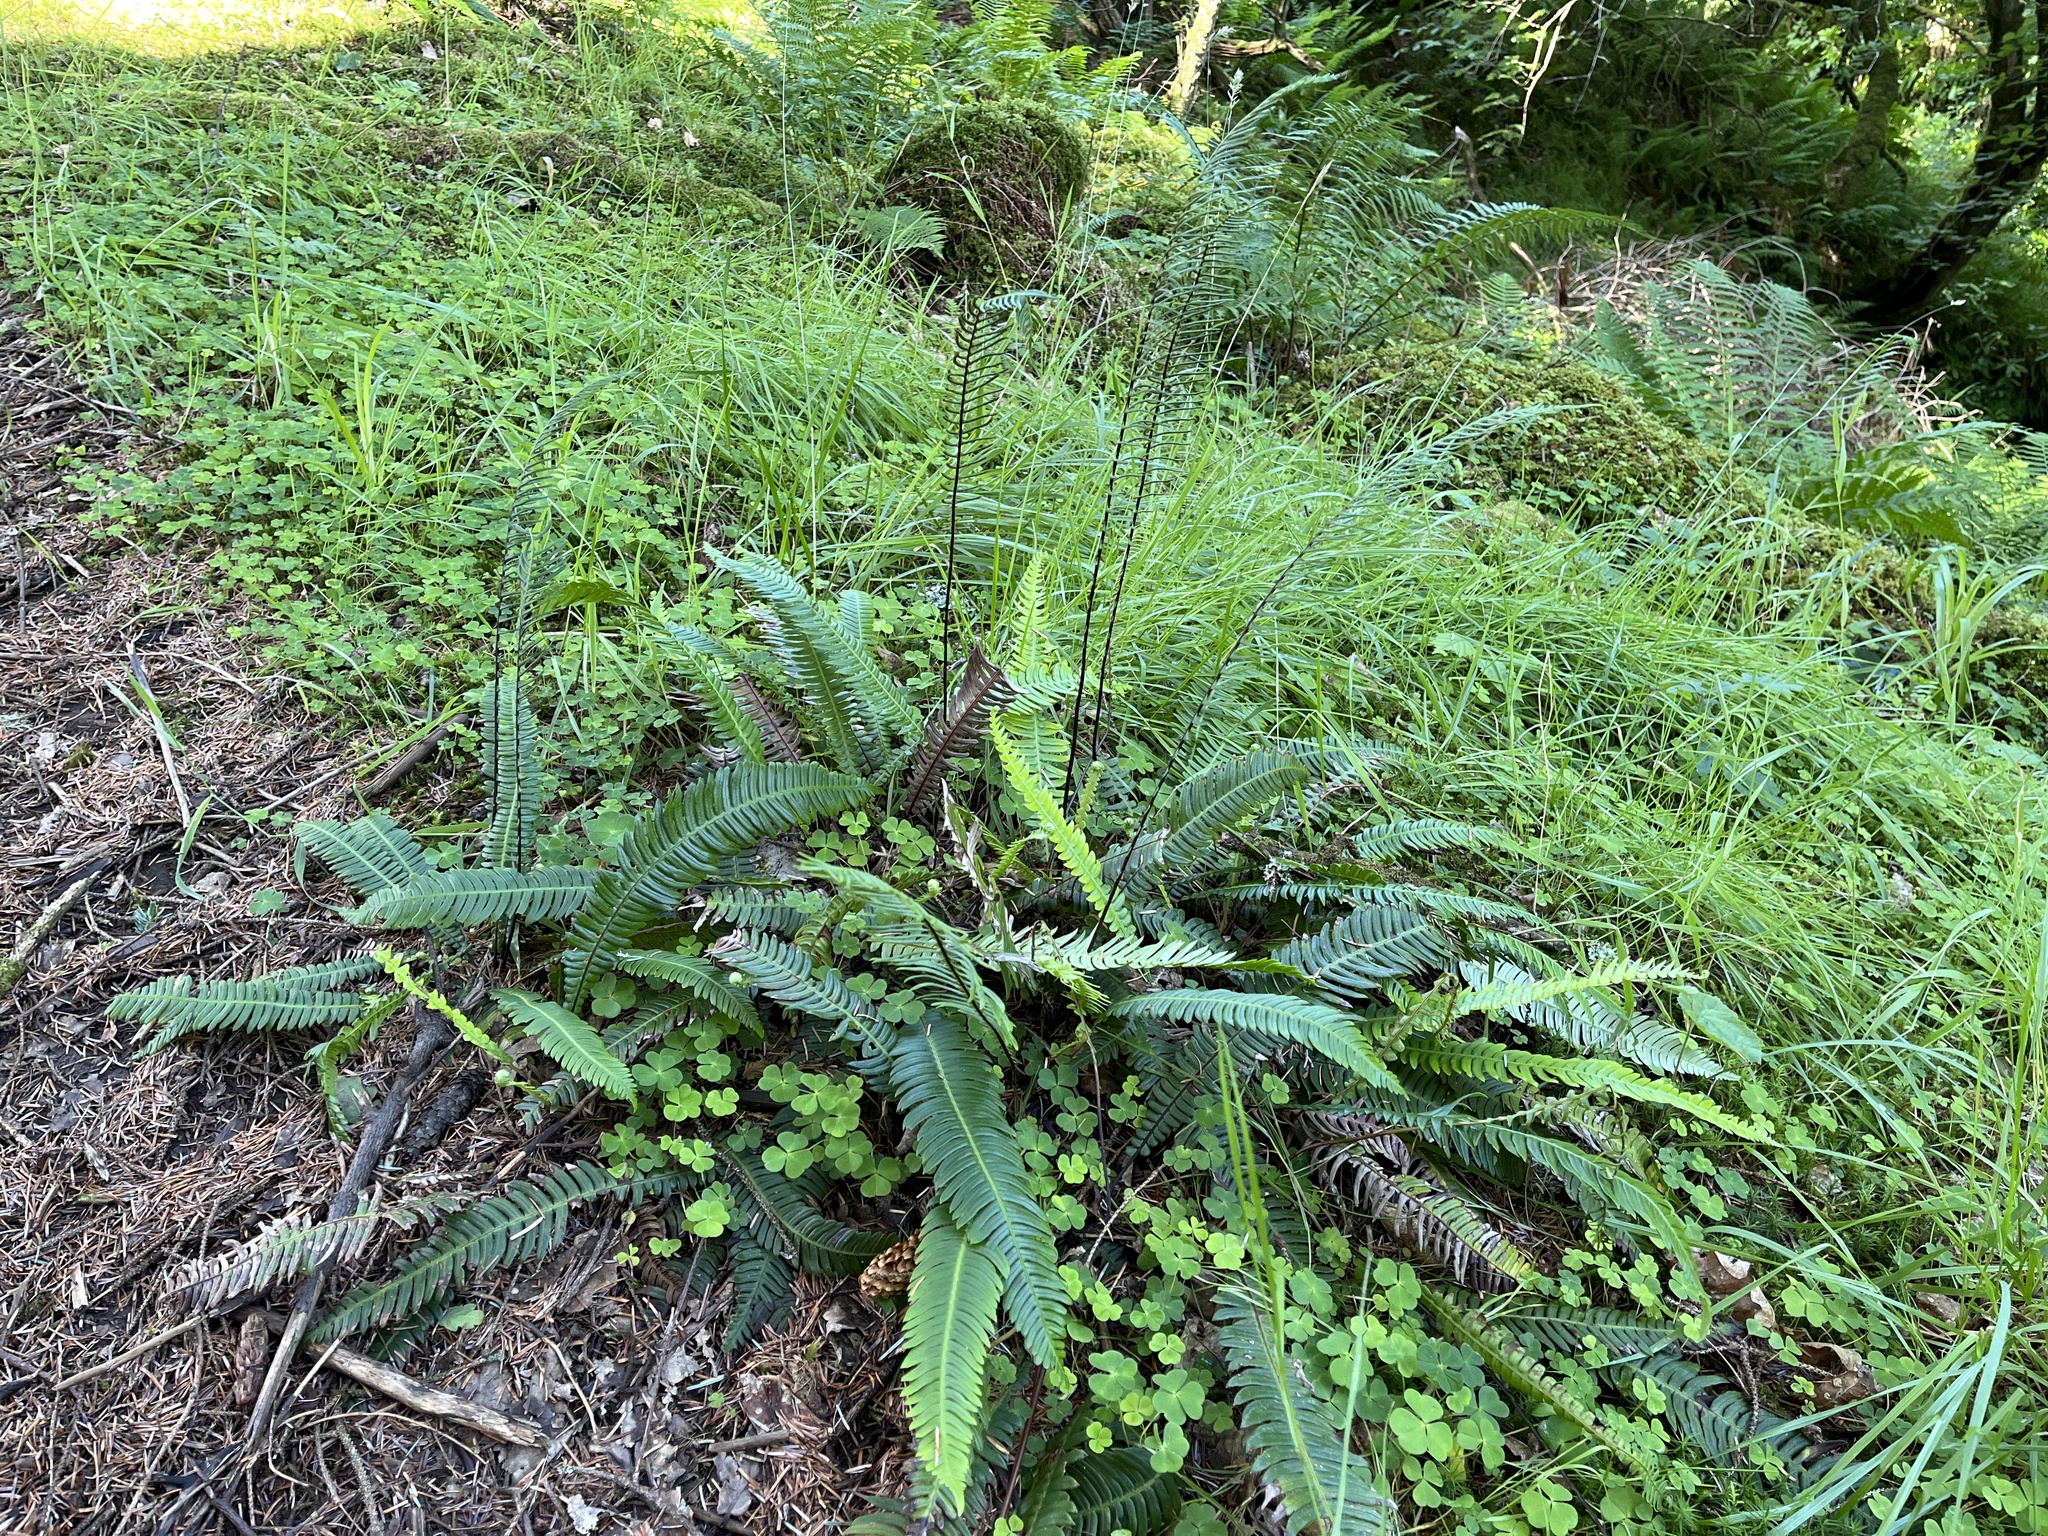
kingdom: Plantae
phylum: Tracheophyta
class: Polypodiopsida
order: Polypodiales
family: Blechnaceae
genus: Struthiopteris
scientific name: Struthiopteris spicant
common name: Deer fern
